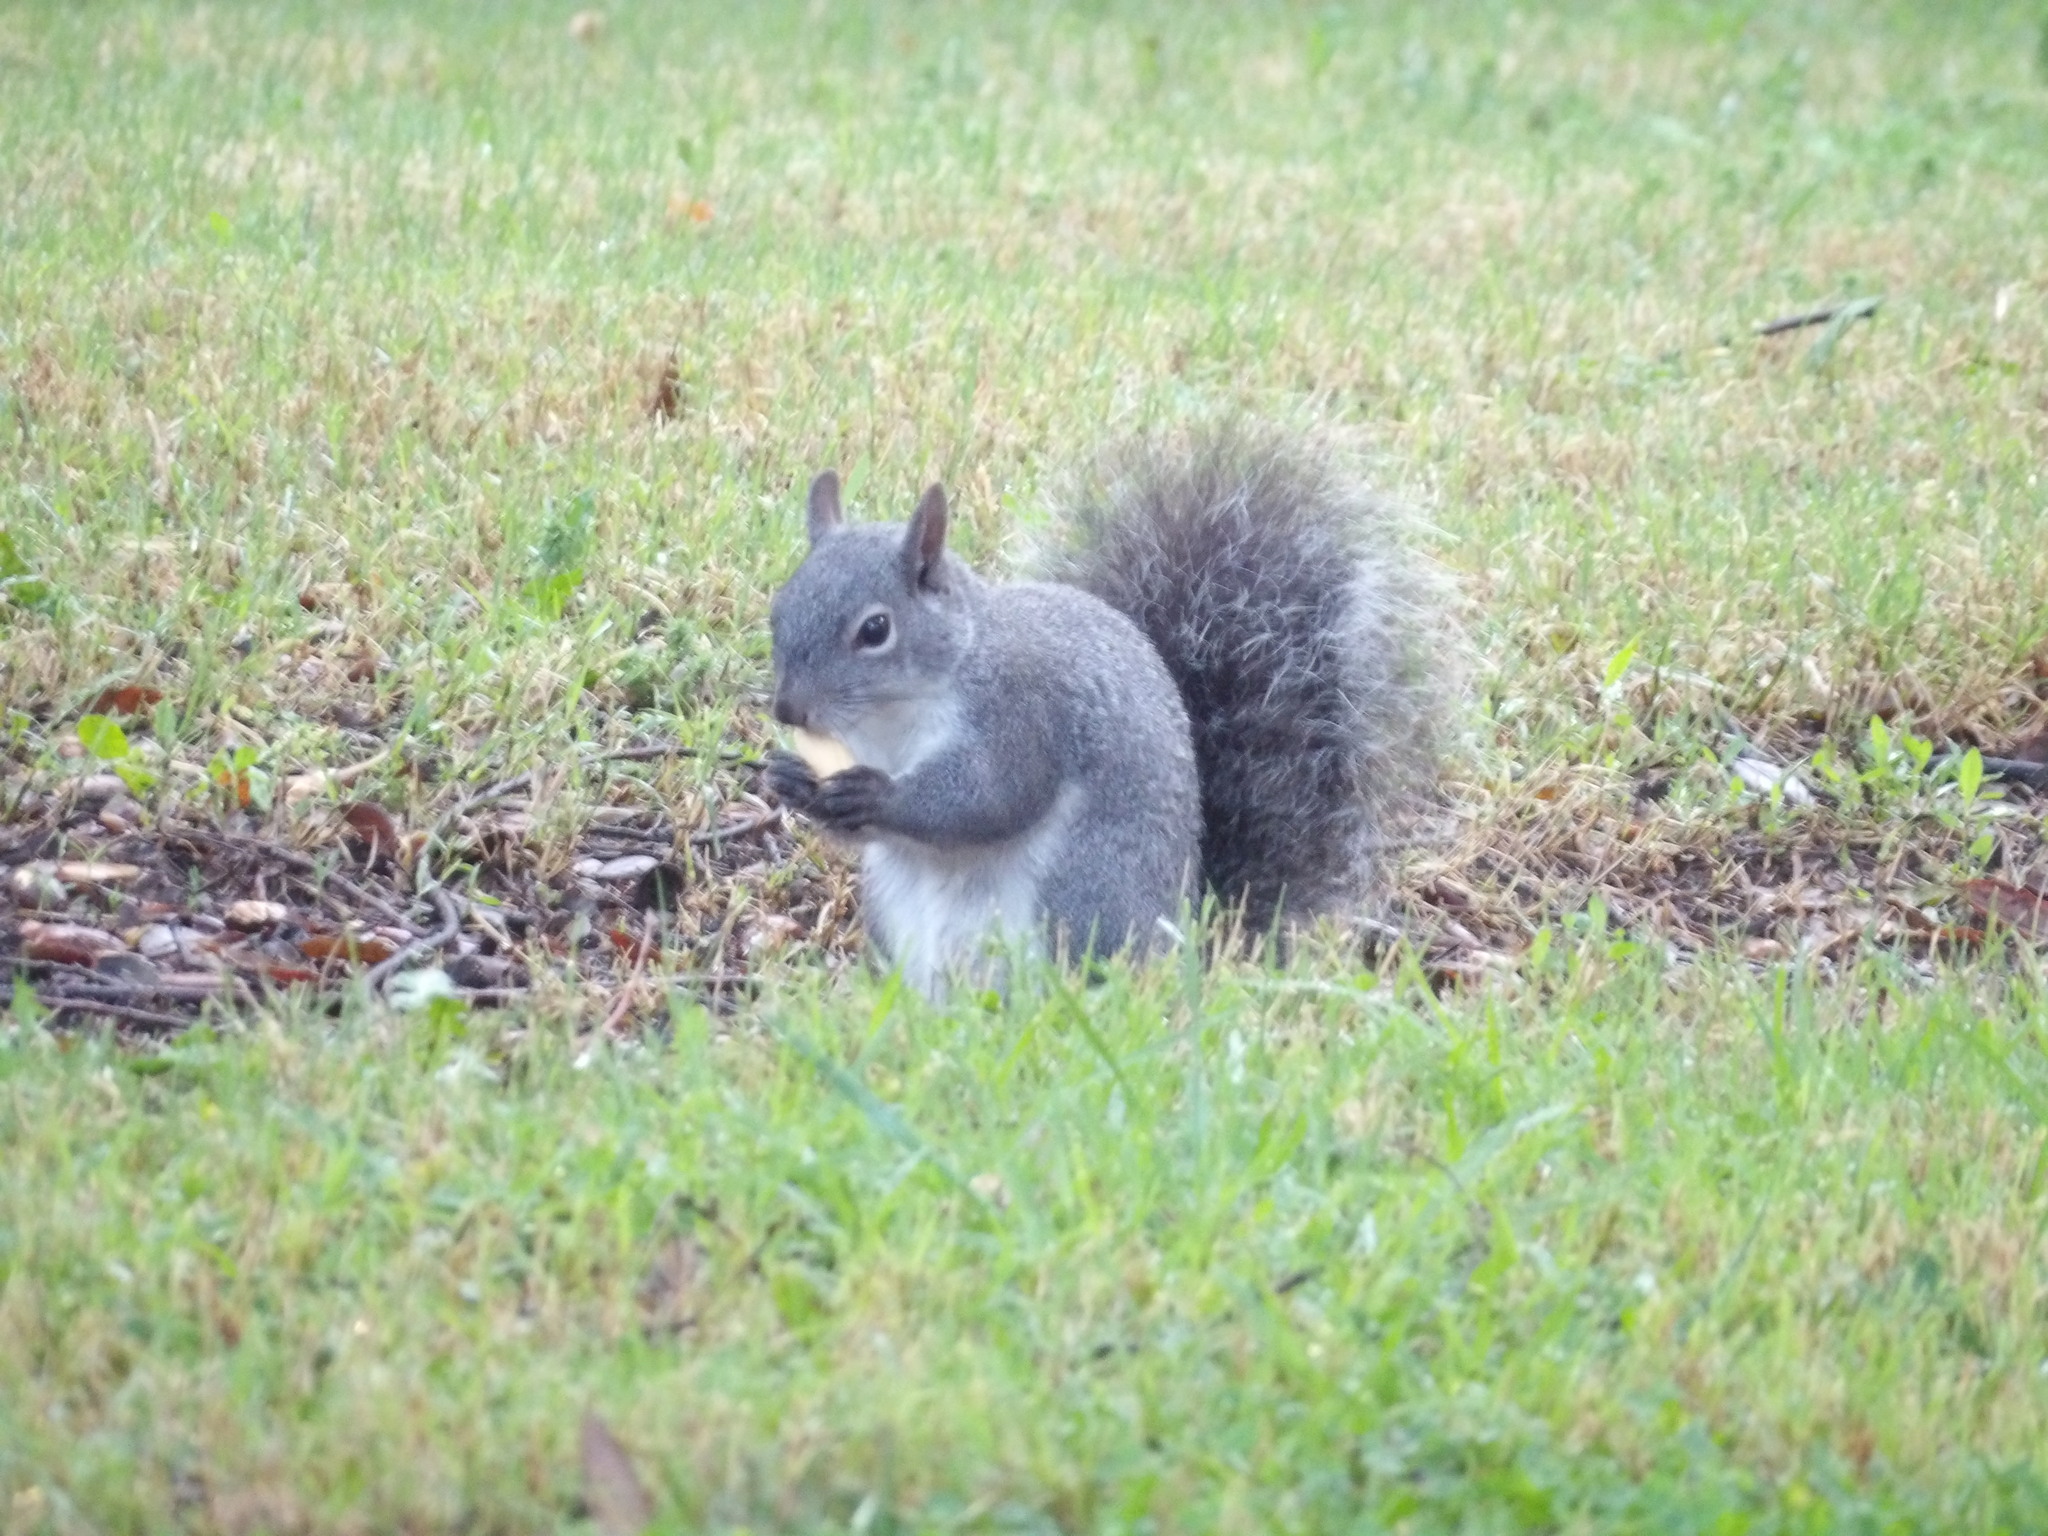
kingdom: Animalia
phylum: Chordata
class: Mammalia
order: Rodentia
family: Sciuridae
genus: Sciurus
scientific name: Sciurus griseus
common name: Western gray squirrel
